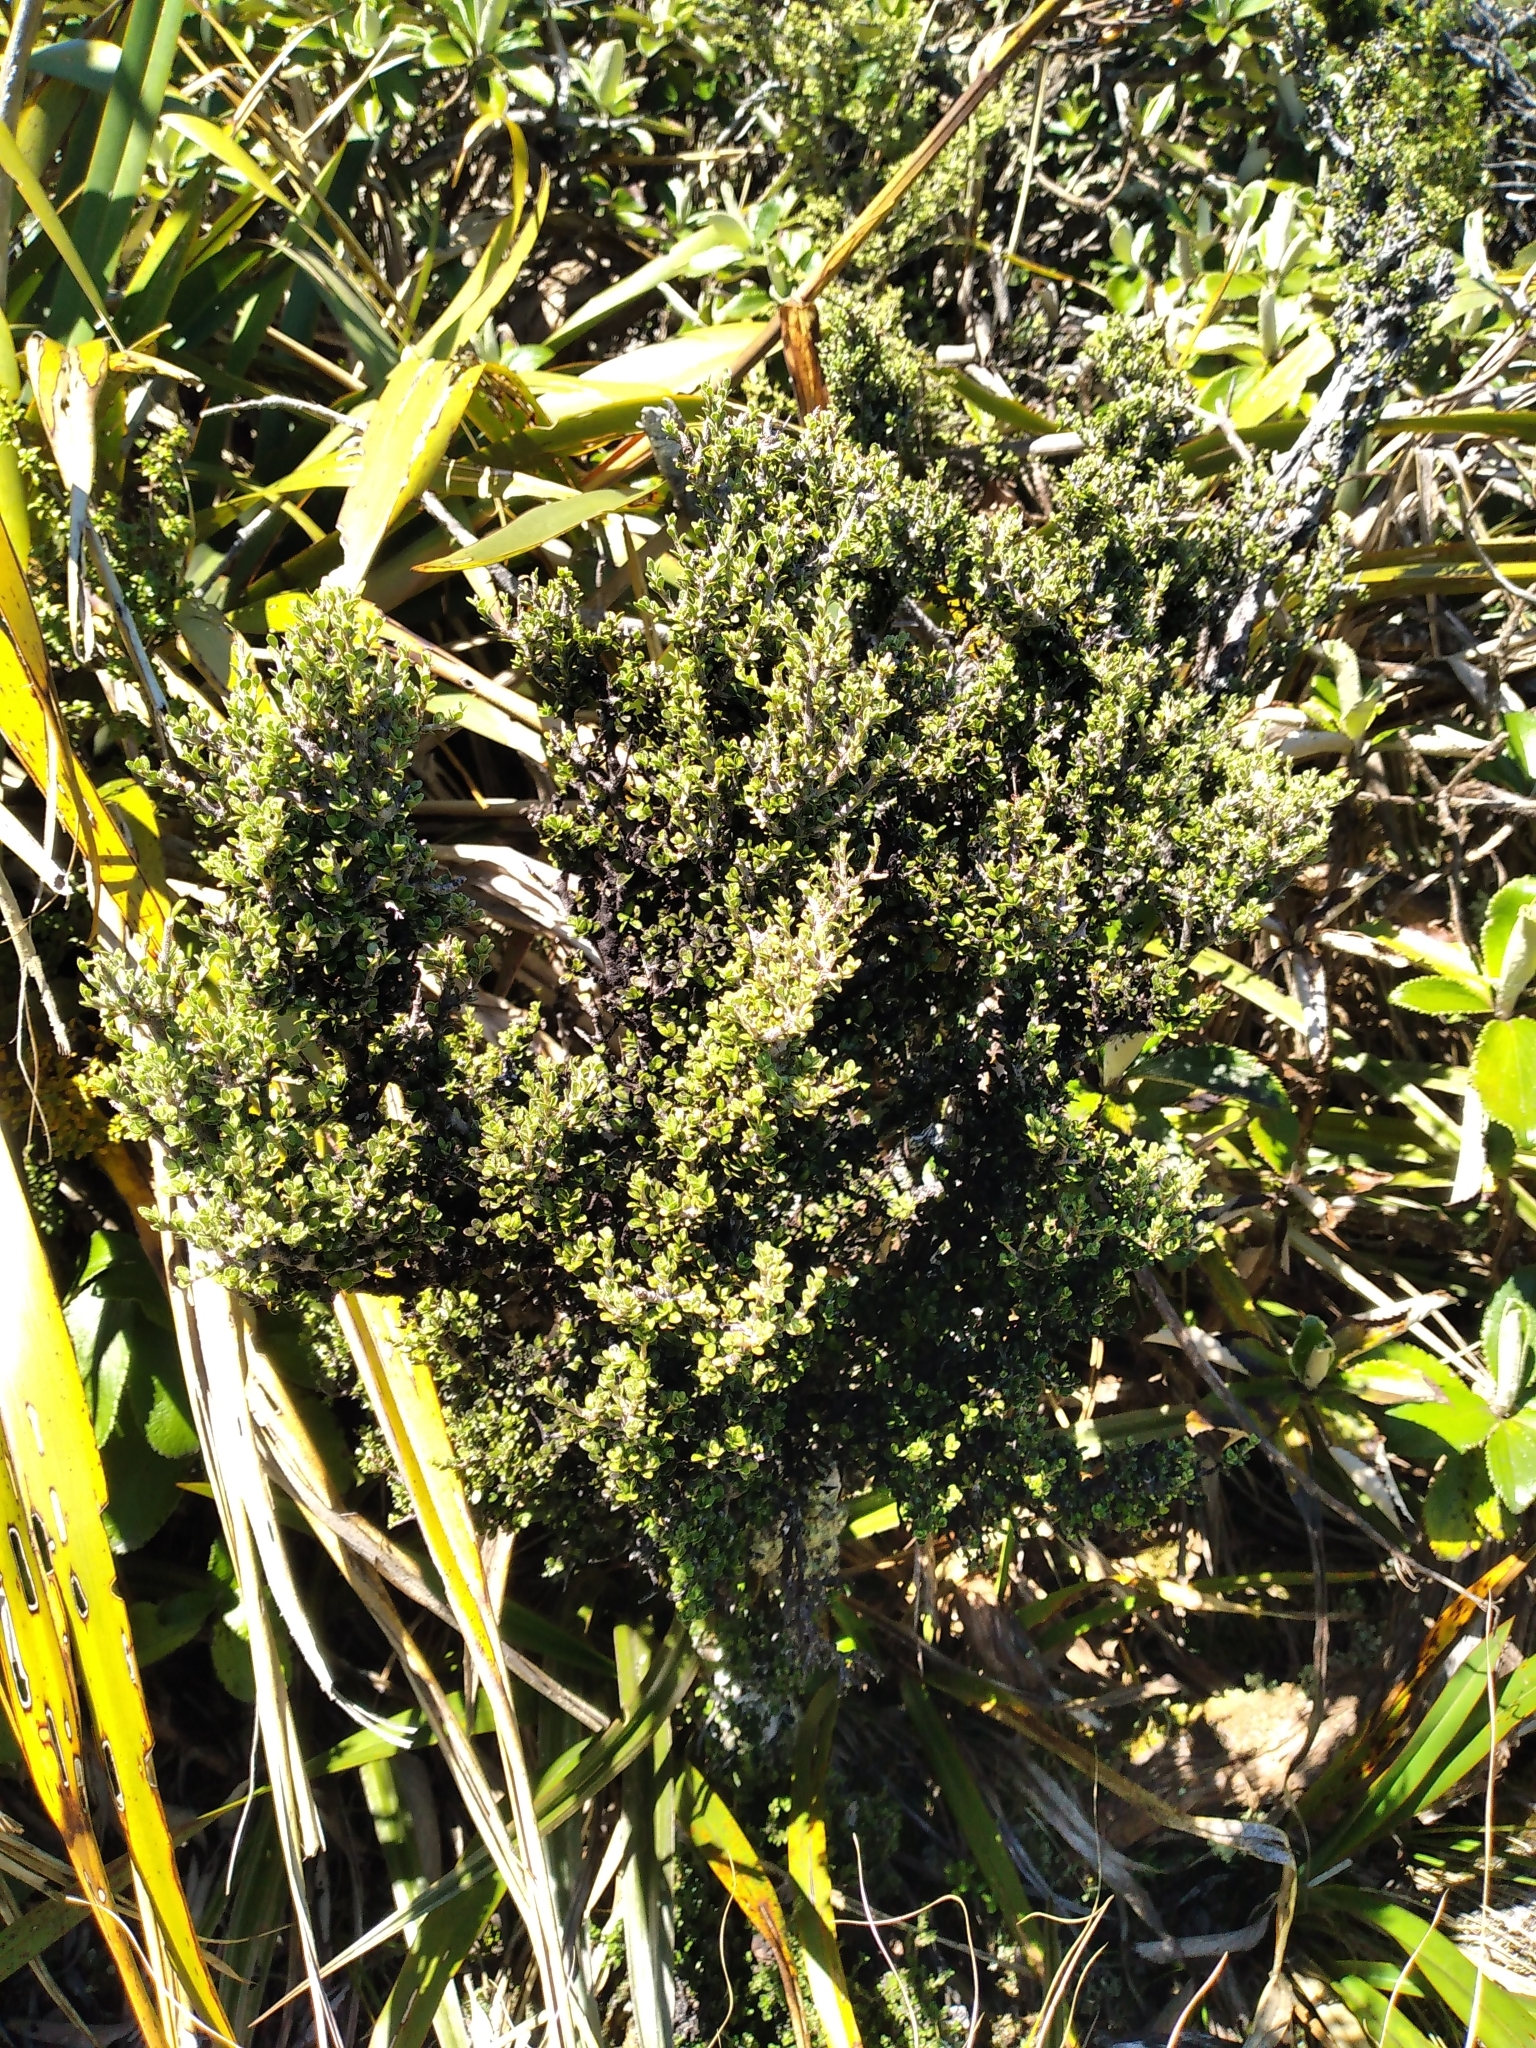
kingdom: Plantae
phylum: Tracheophyta
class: Magnoliopsida
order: Apiales
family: Pittosporaceae
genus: Pittosporum
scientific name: Pittosporum rigidum
